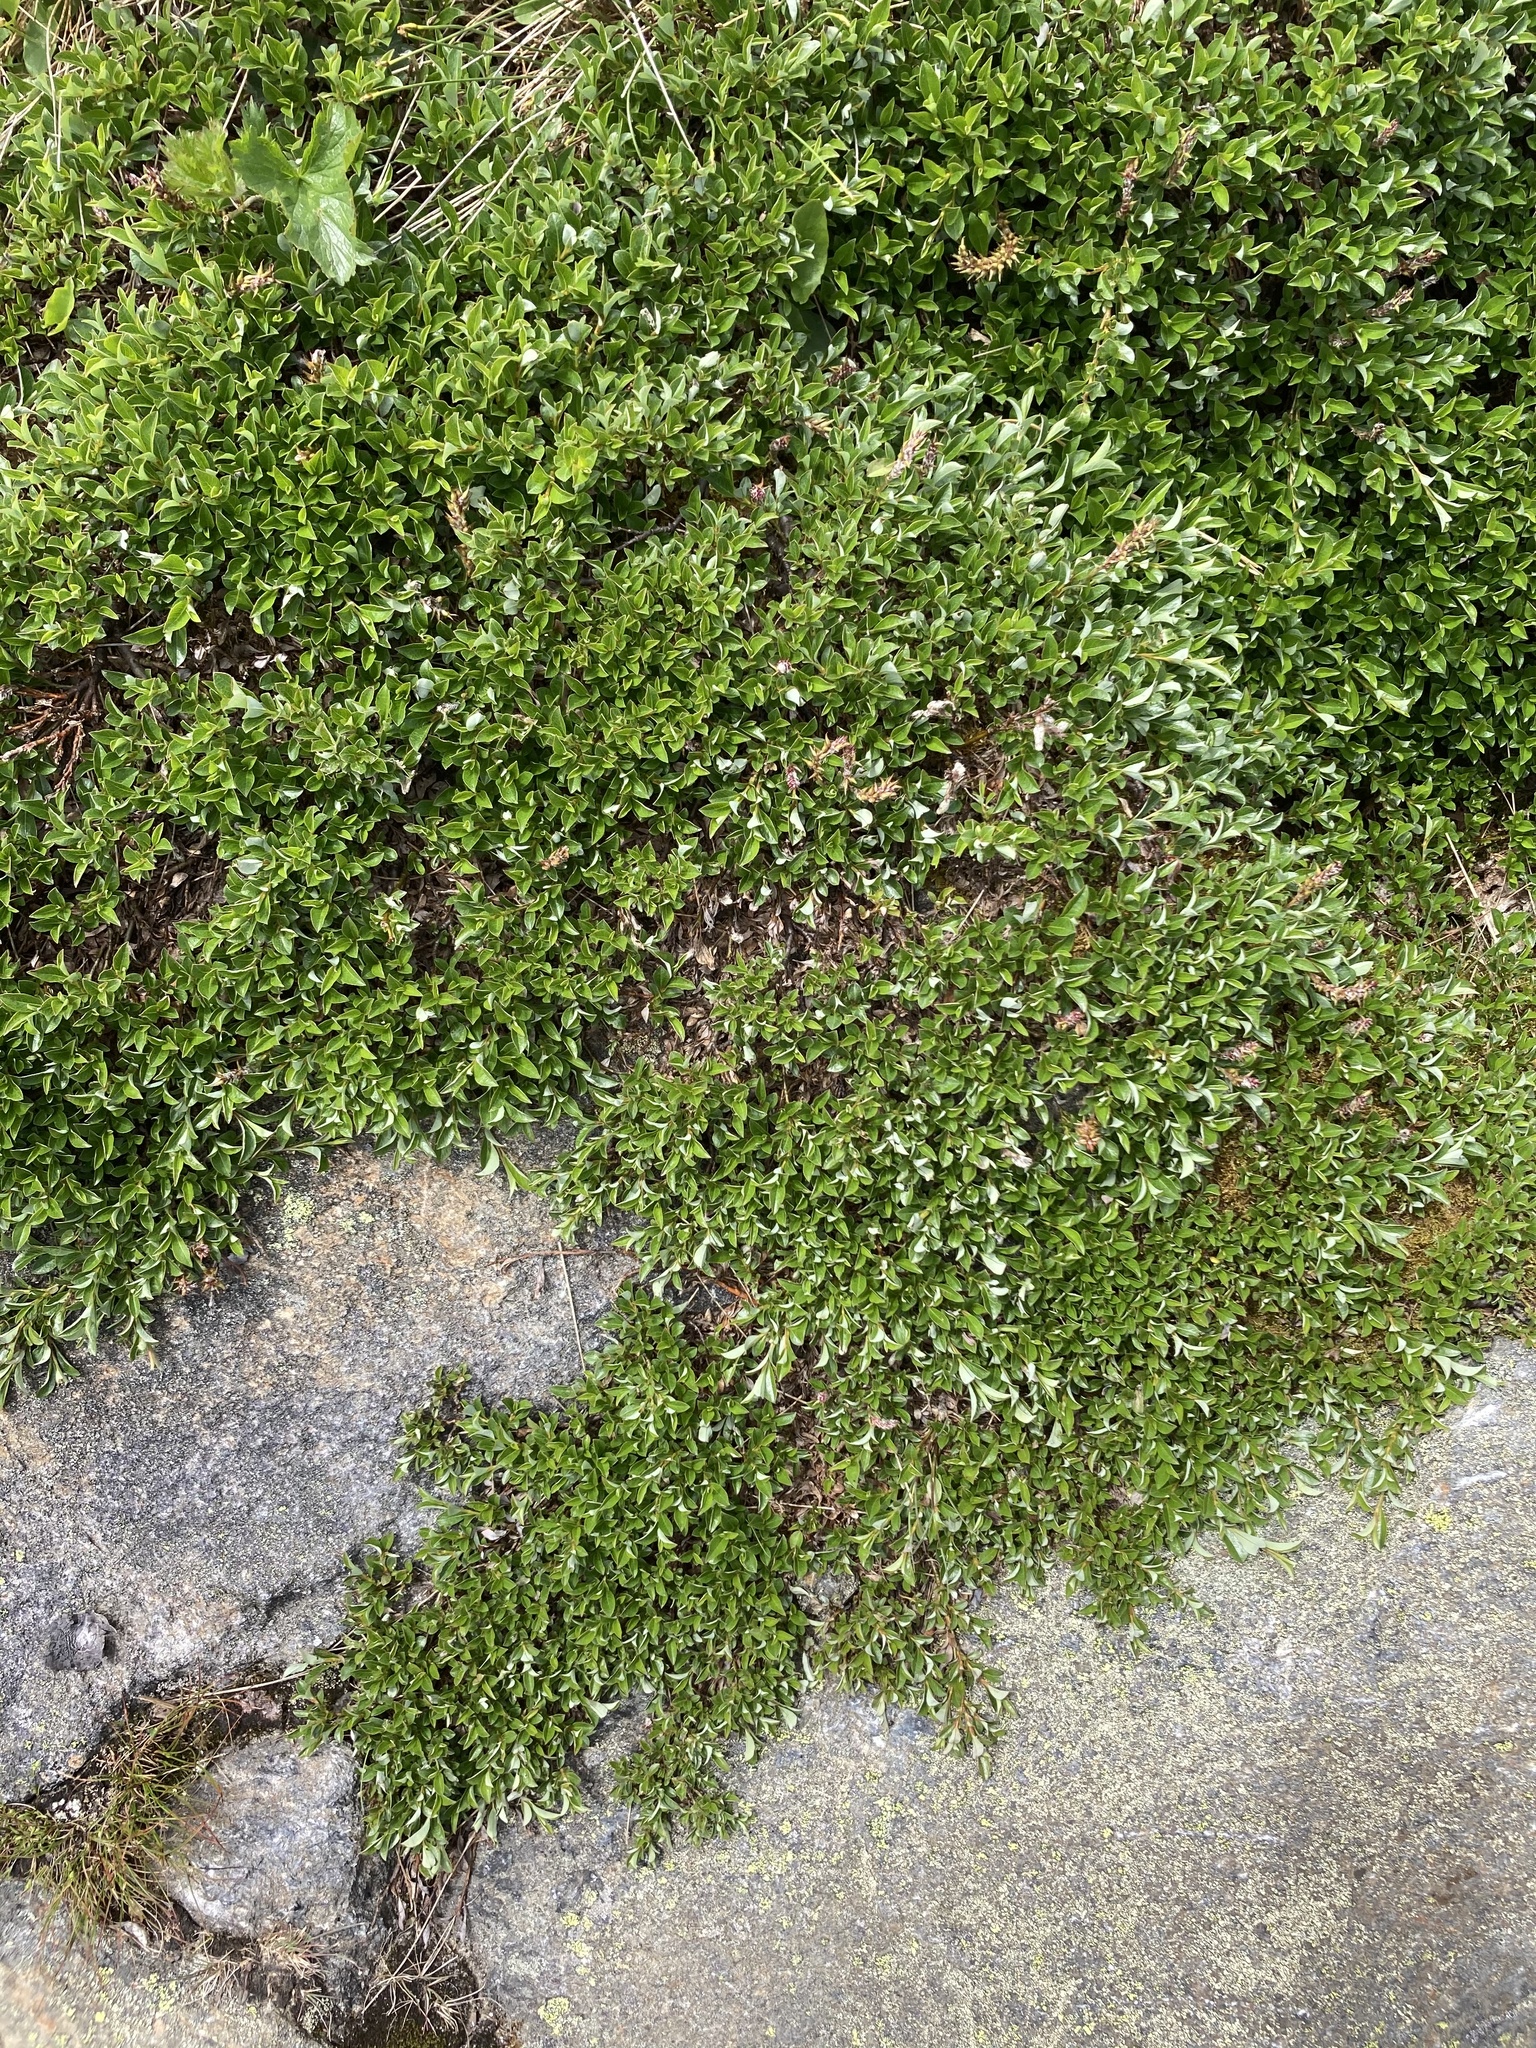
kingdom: Plantae
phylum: Tracheophyta
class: Magnoliopsida
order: Malpighiales
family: Salicaceae
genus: Salix
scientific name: Salix uva-ursi
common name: Bearberry willow
